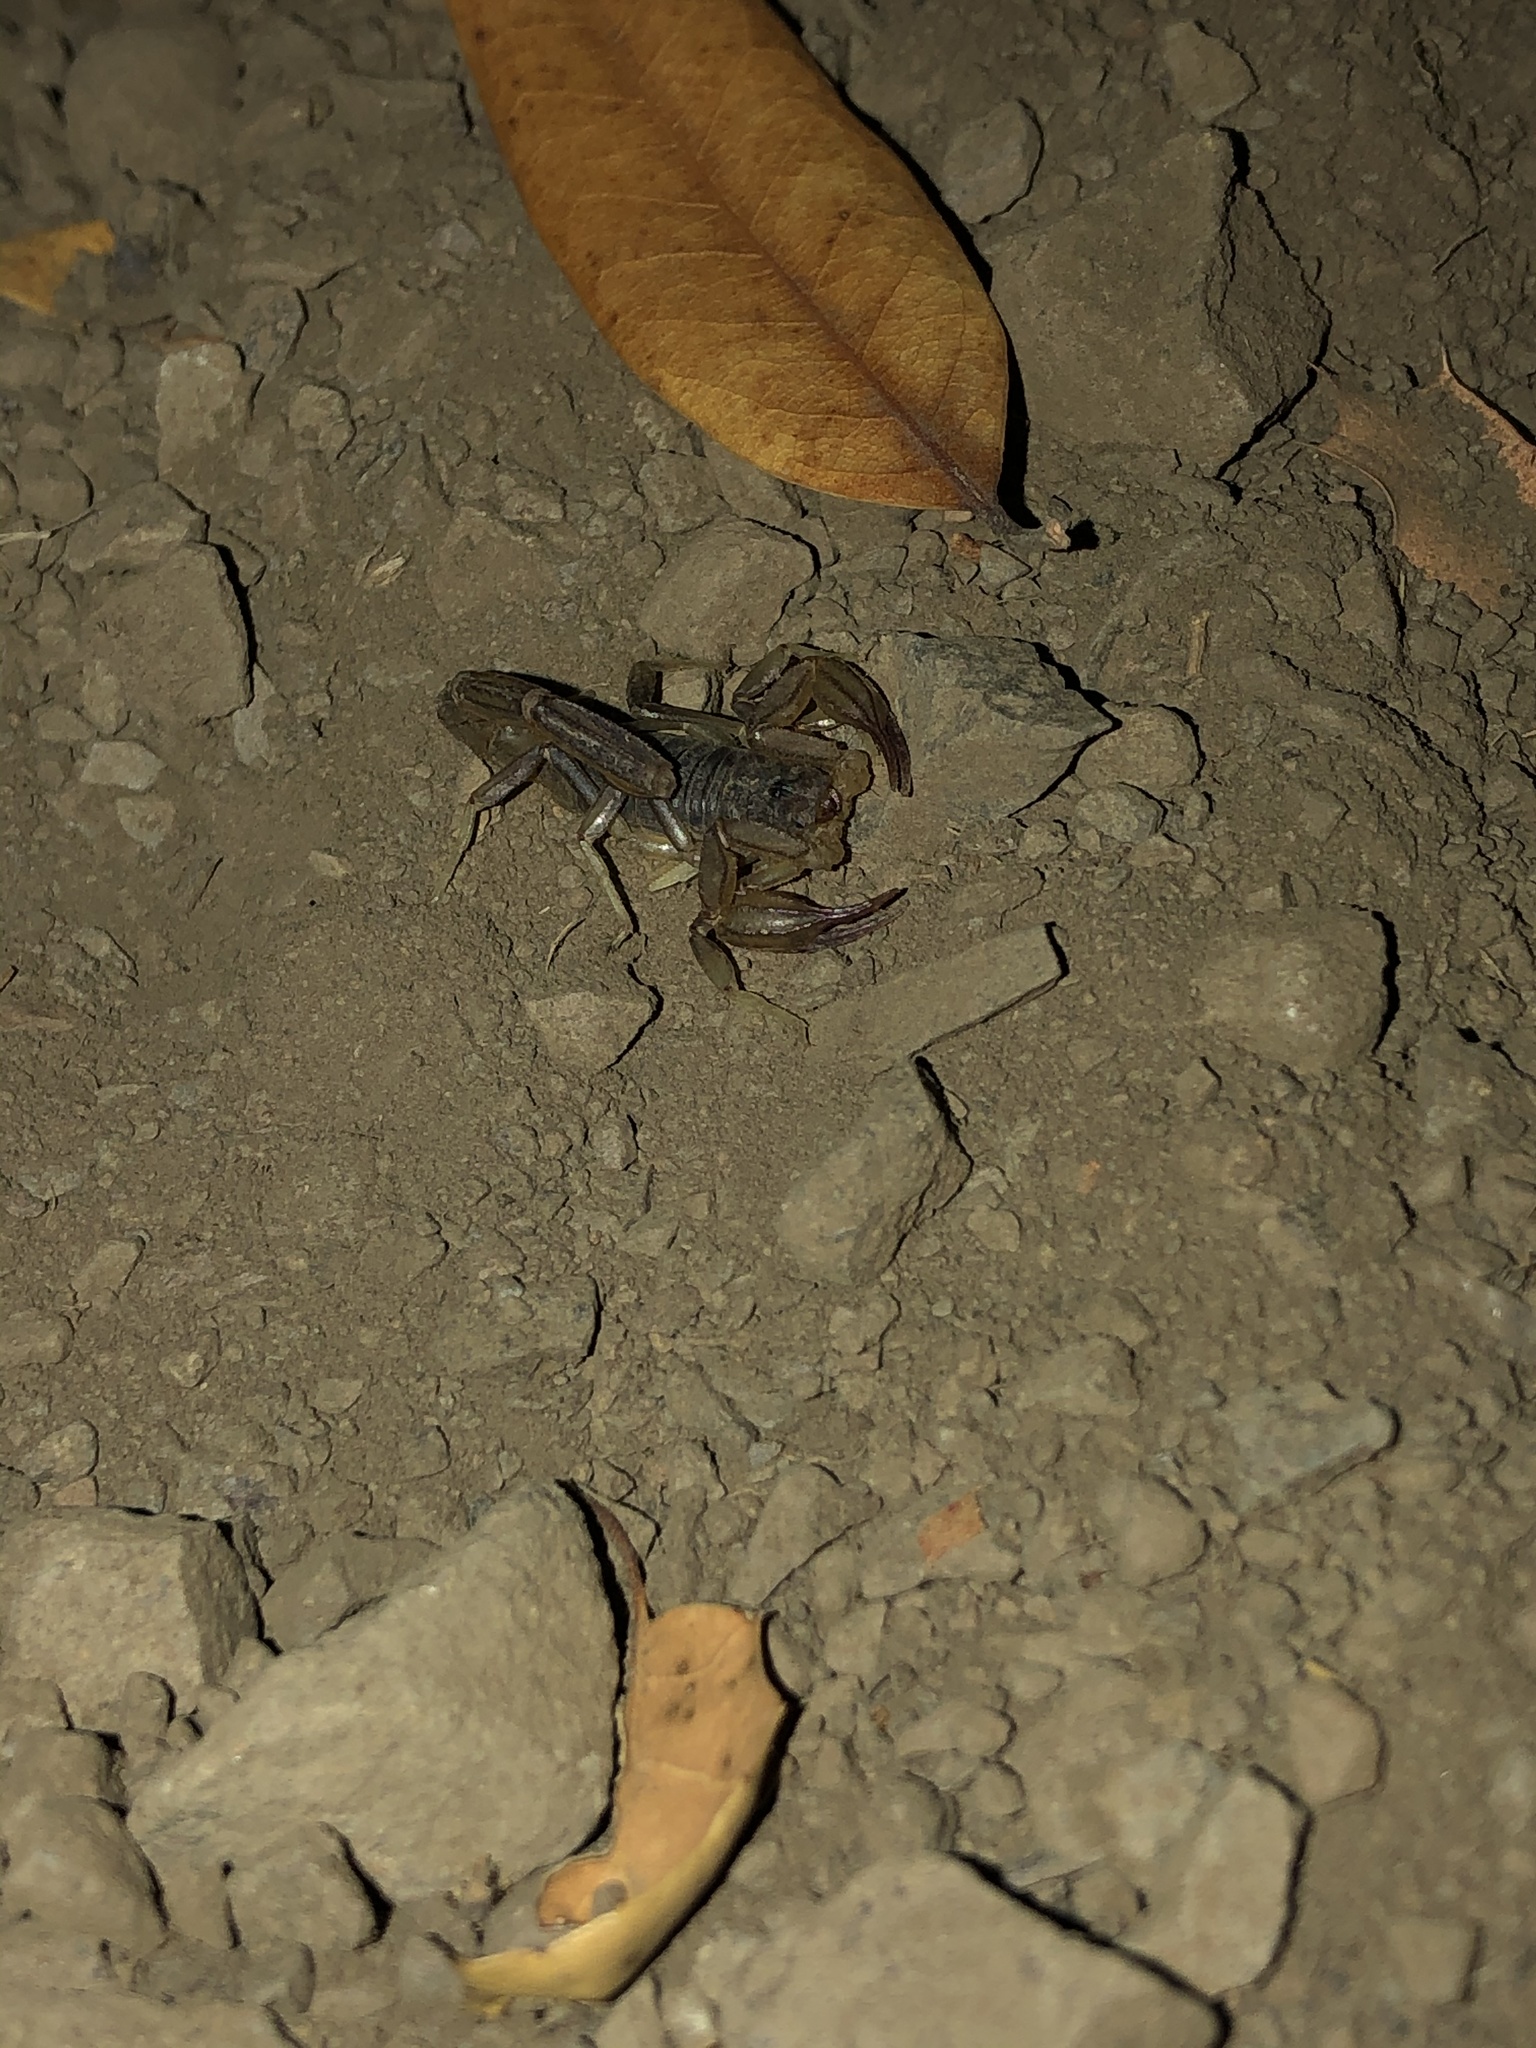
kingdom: Animalia
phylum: Arthropoda
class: Arachnida
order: Scorpiones
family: Vaejovidae
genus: Paruroctonus
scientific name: Paruroctonus silvestrii
